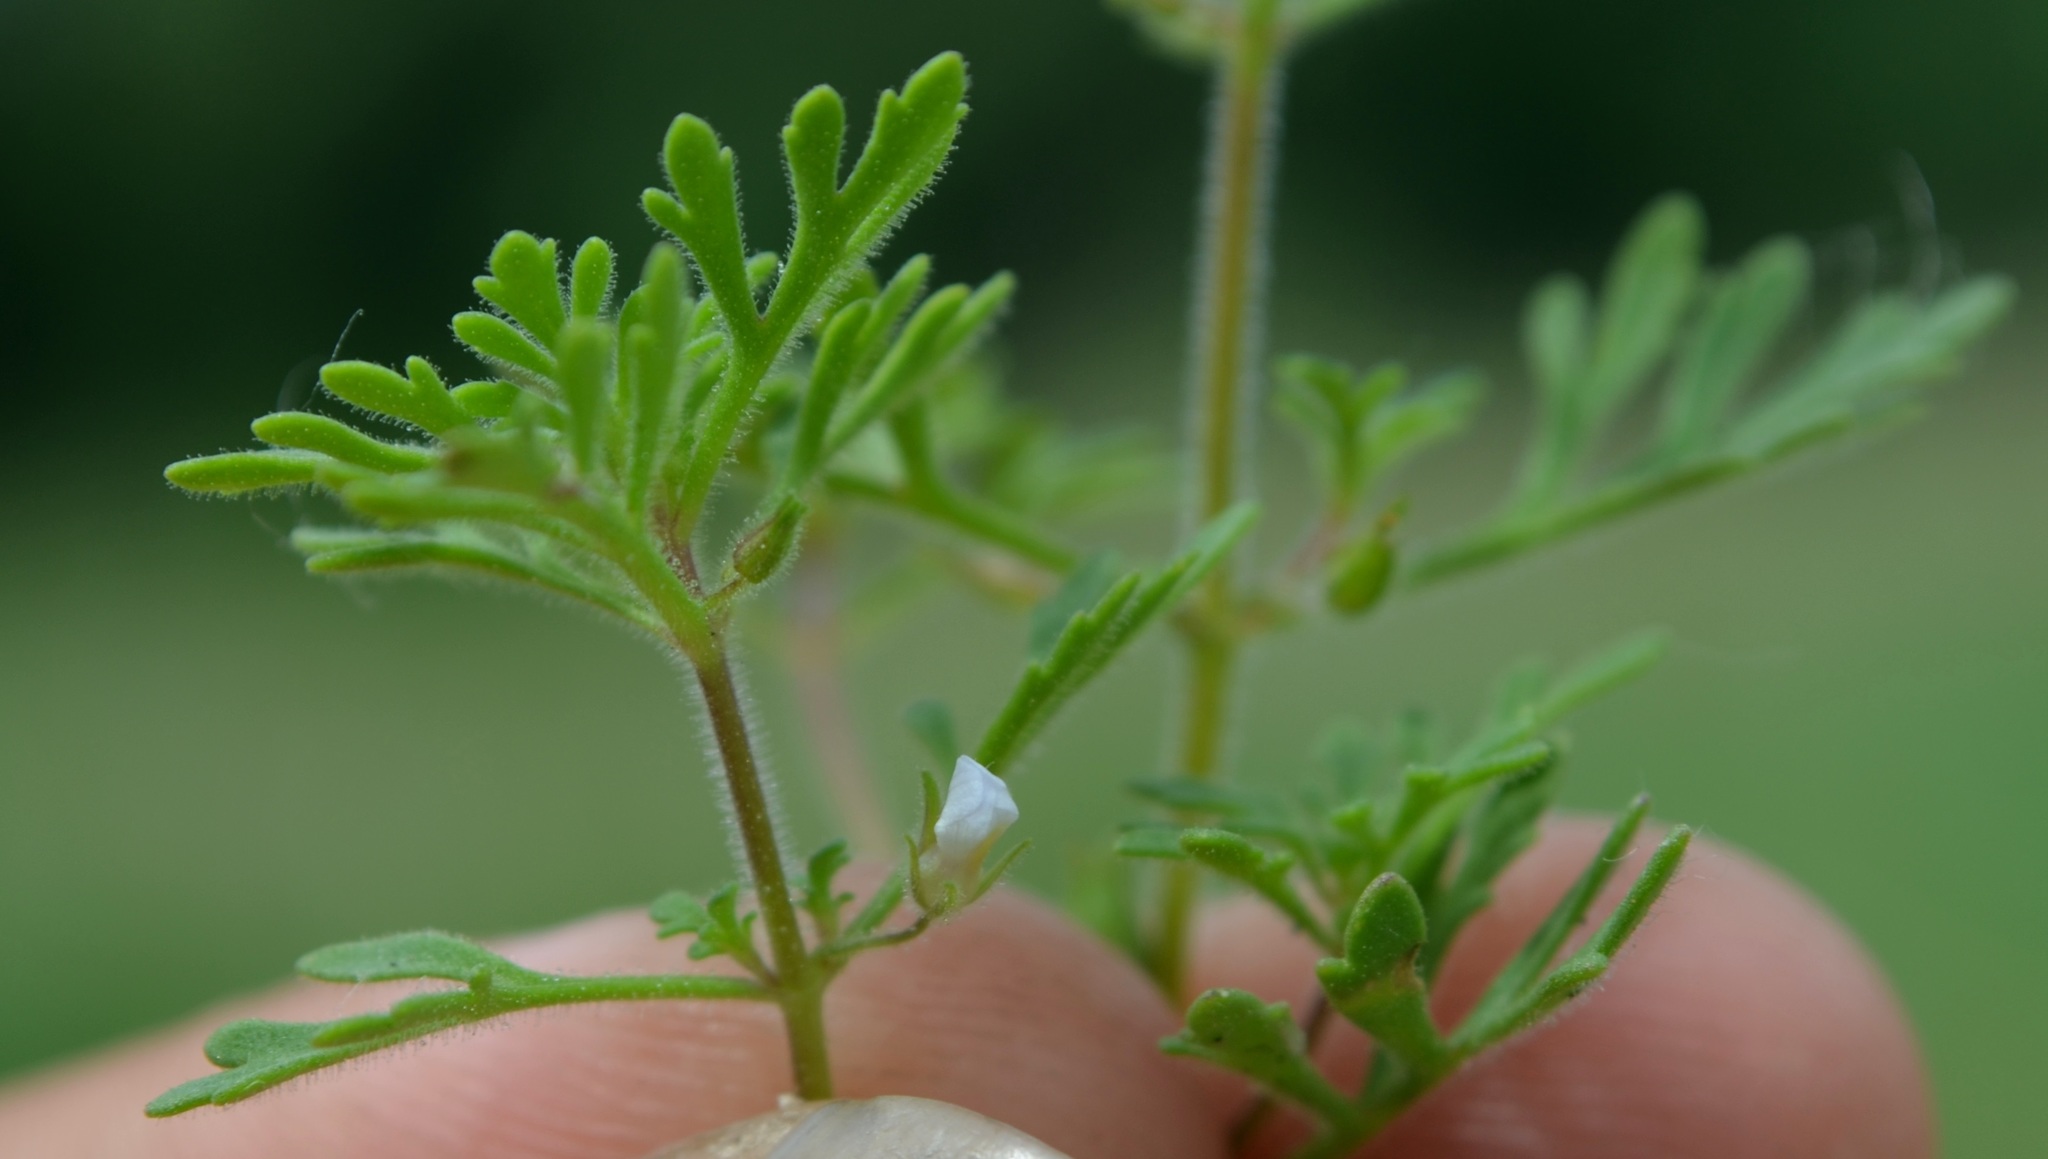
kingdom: Plantae
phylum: Tracheophyta
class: Magnoliopsida
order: Lamiales
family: Plantaginaceae
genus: Leucospora
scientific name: Leucospora multifida
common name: Narrow-leaf paleseed
